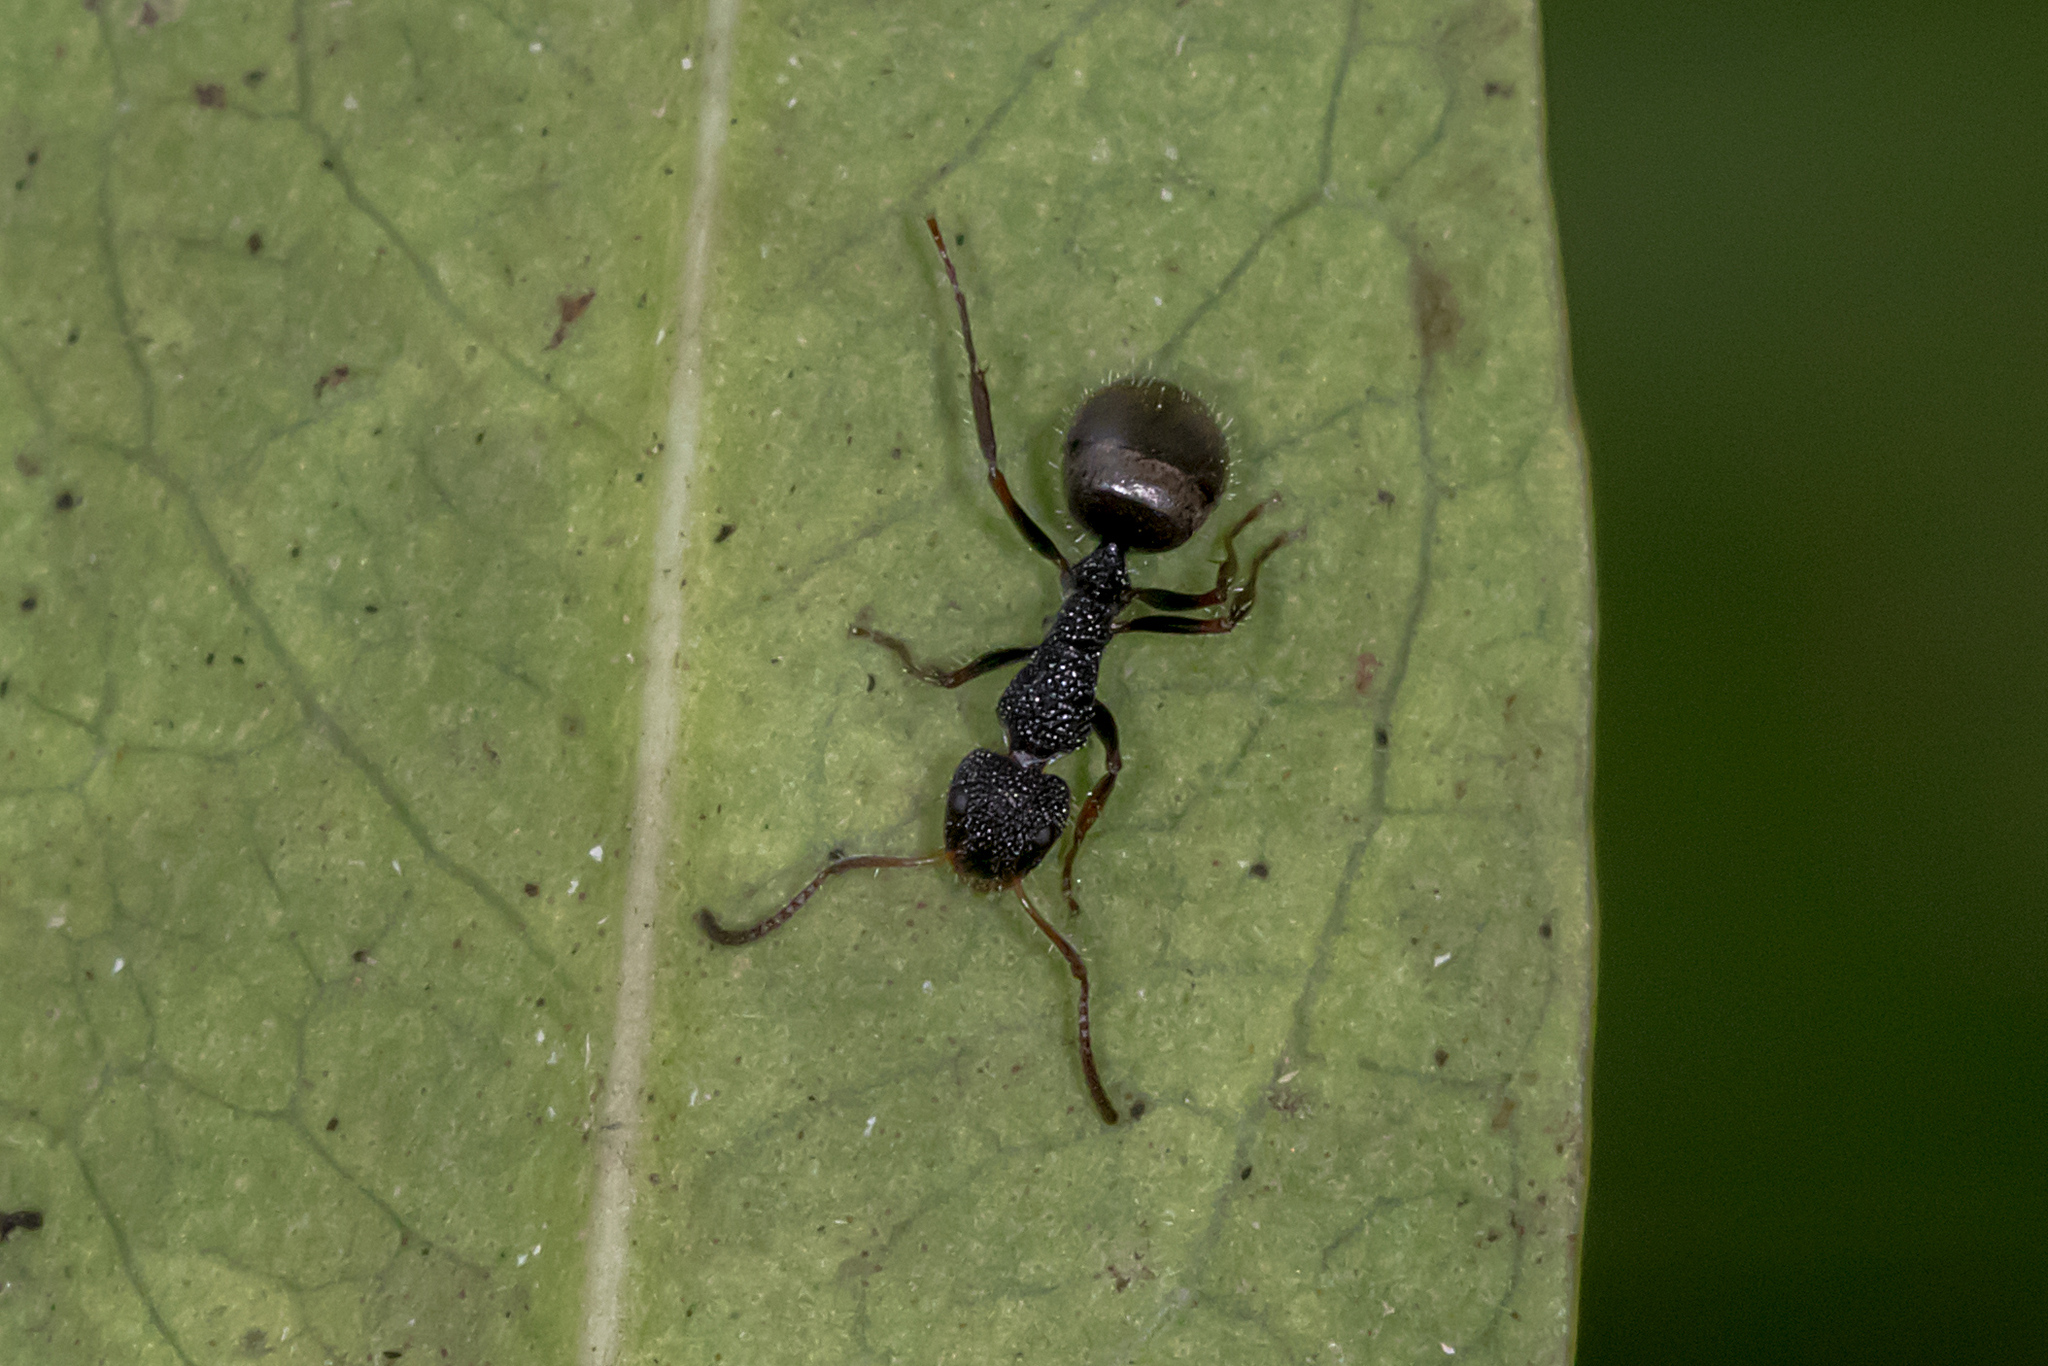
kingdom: Animalia
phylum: Arthropoda
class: Insecta
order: Hymenoptera
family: Formicidae
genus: Dolichoderus
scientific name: Dolichoderus scrobiculatus
